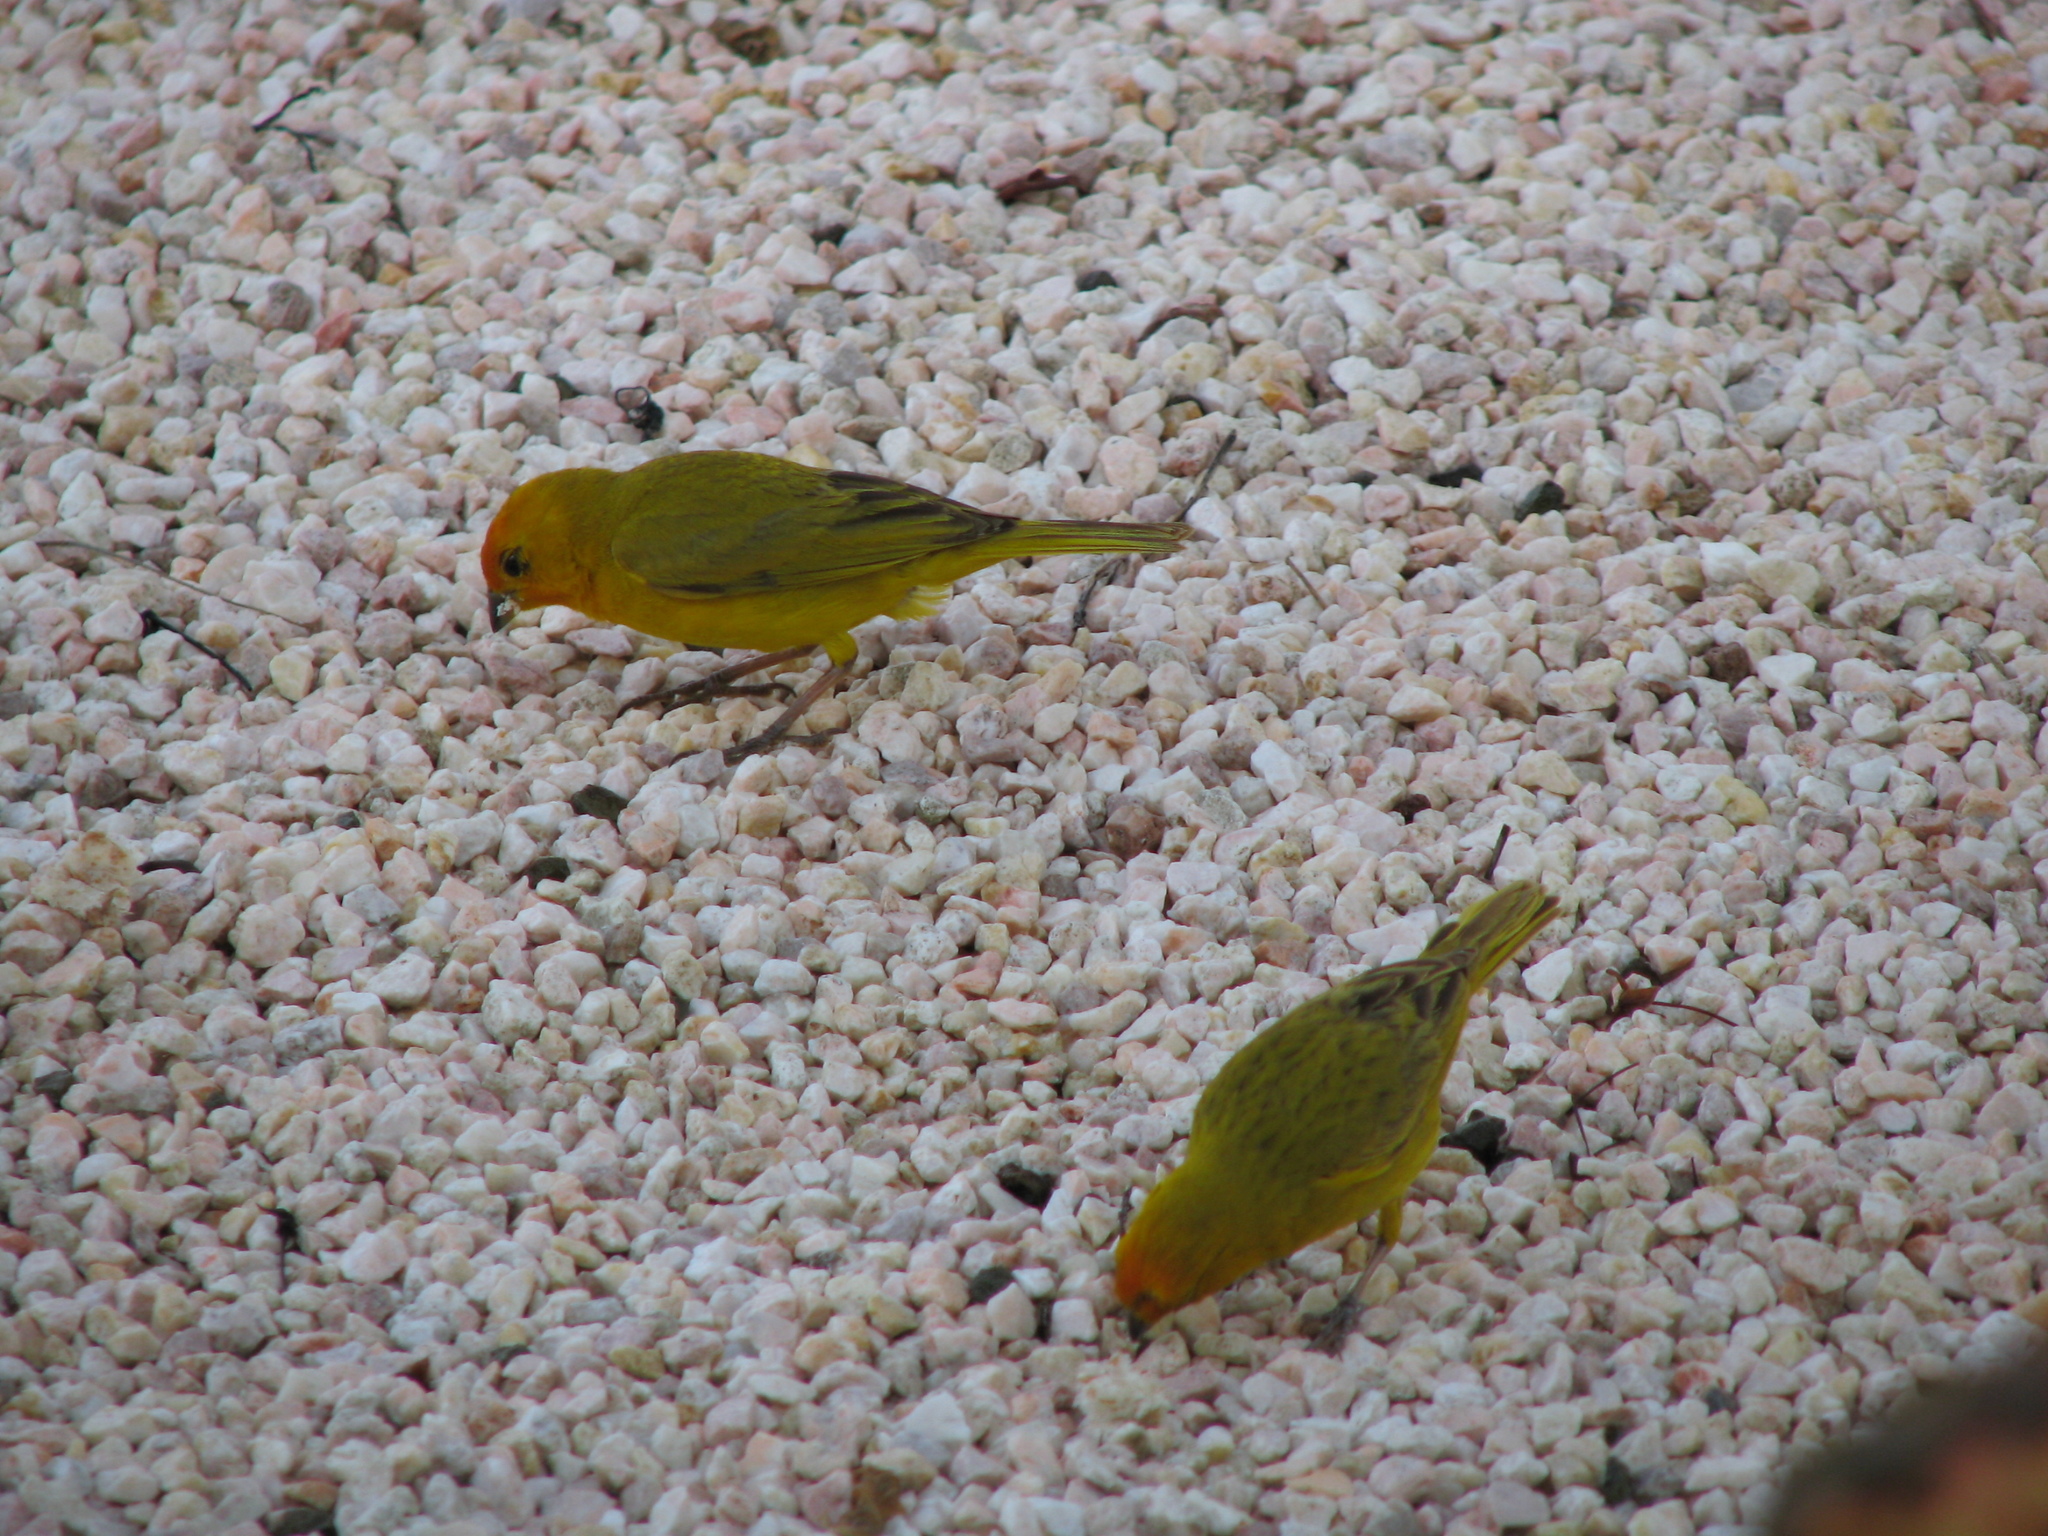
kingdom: Animalia
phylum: Chordata
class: Aves
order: Passeriformes
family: Thraupidae
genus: Sicalis
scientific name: Sicalis flaveola
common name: Saffron finch
